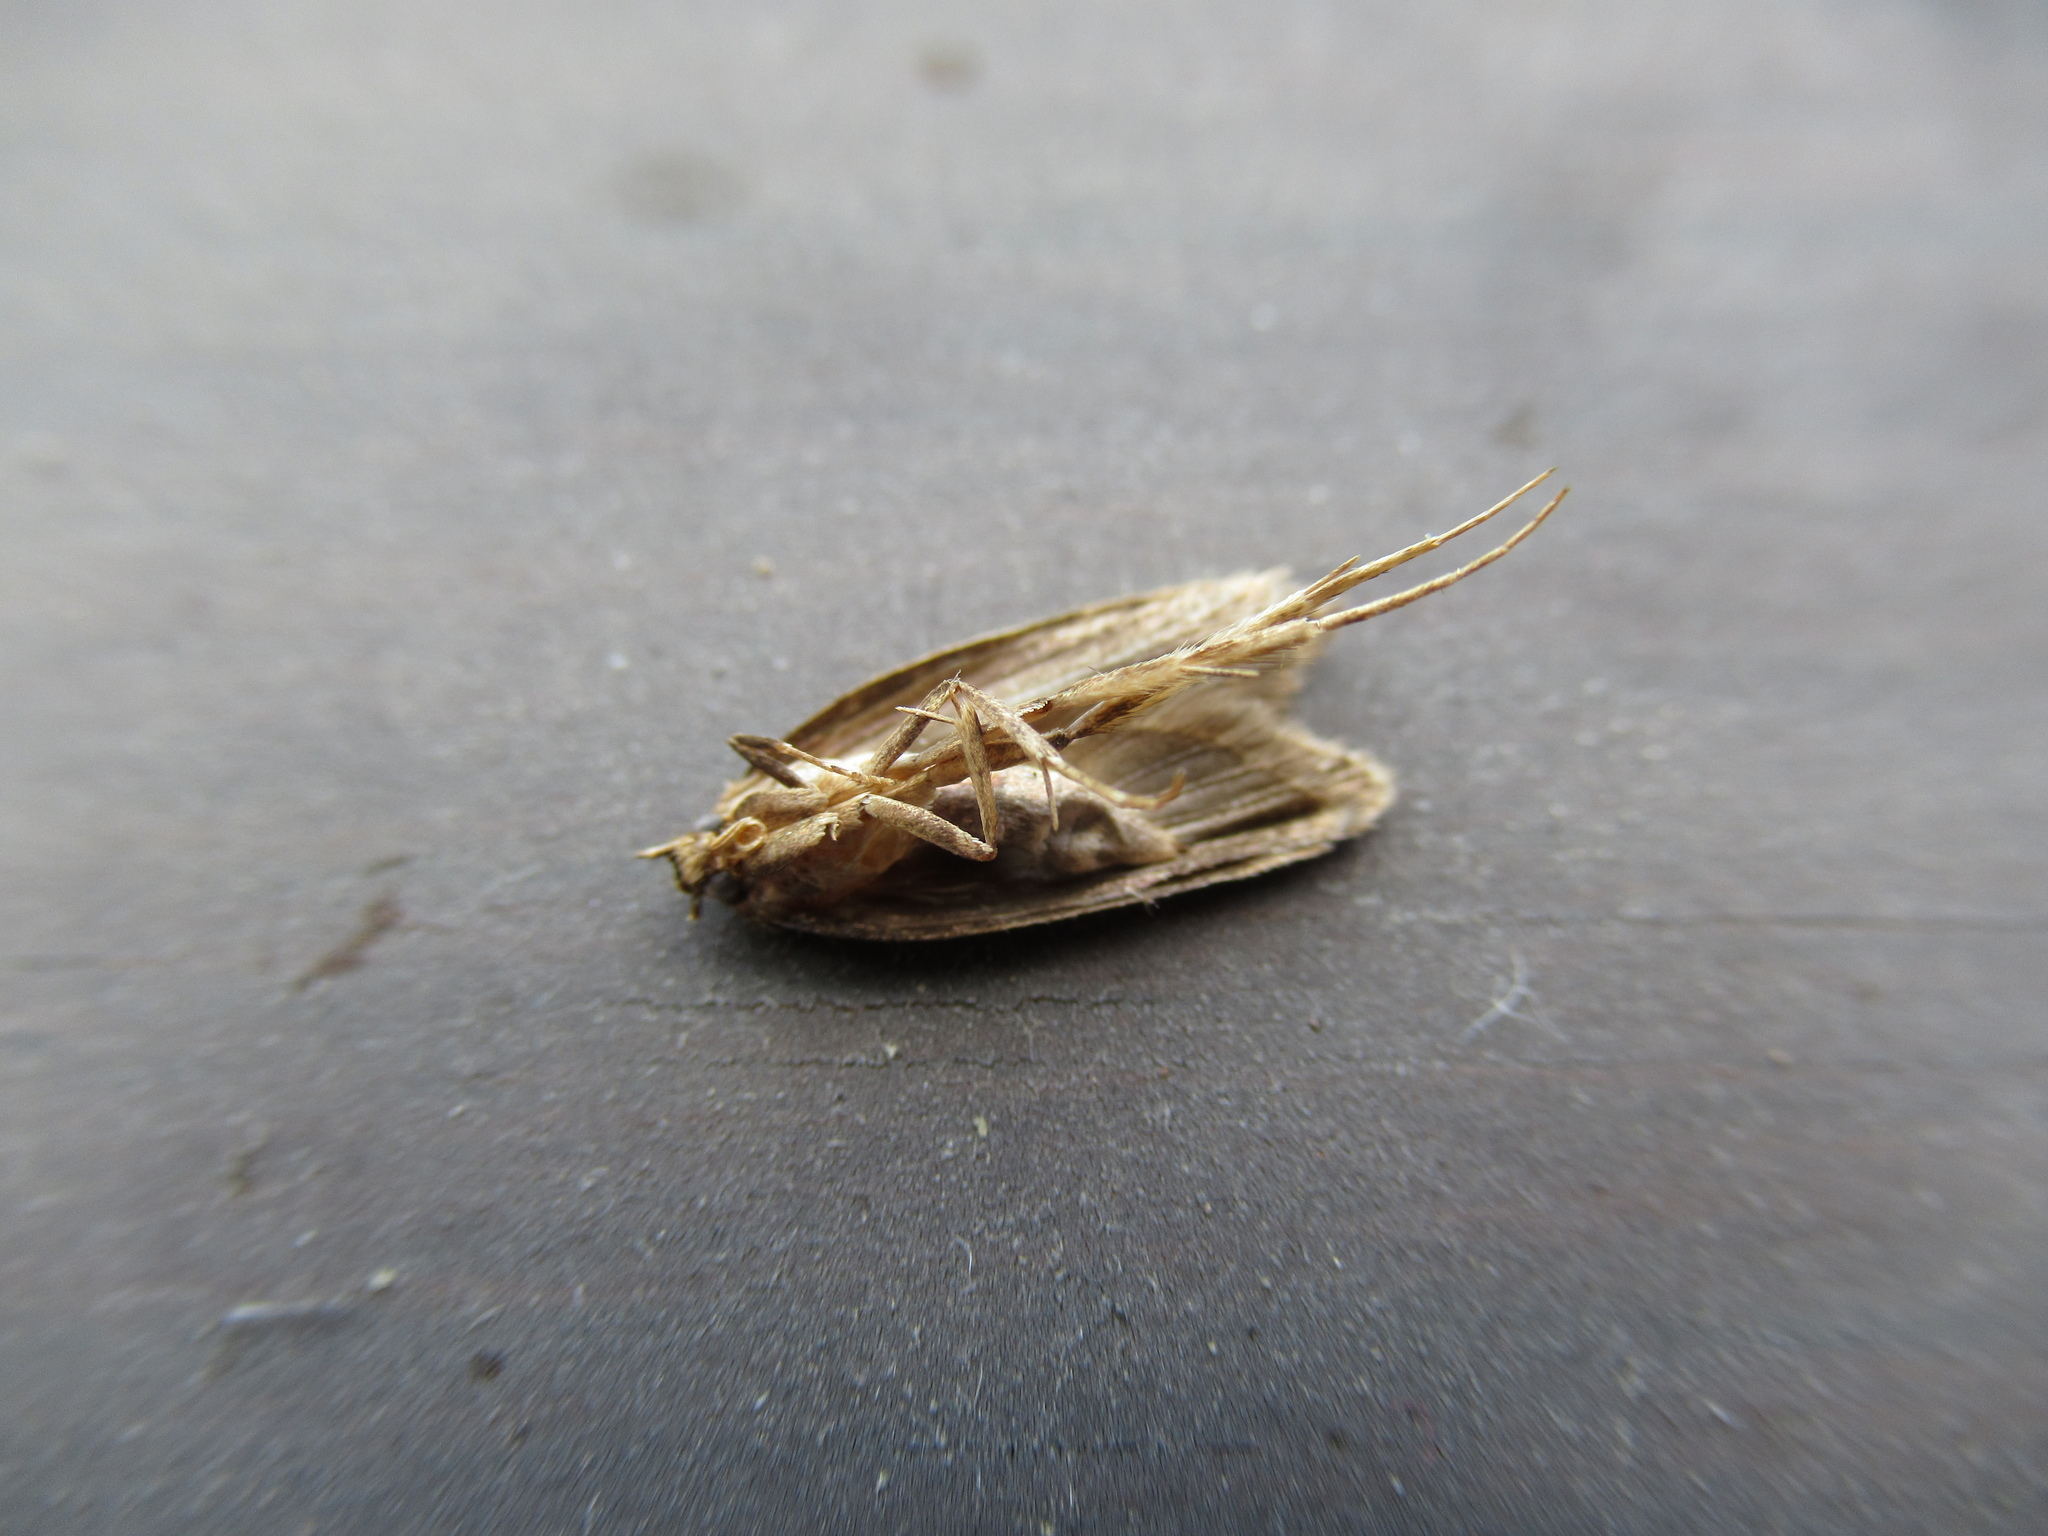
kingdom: Animalia
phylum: Arthropoda
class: Insecta
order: Lepidoptera
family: Oecophoridae
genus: Hofmannophila
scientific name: Hofmannophila pseudospretella
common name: Brown house moth
